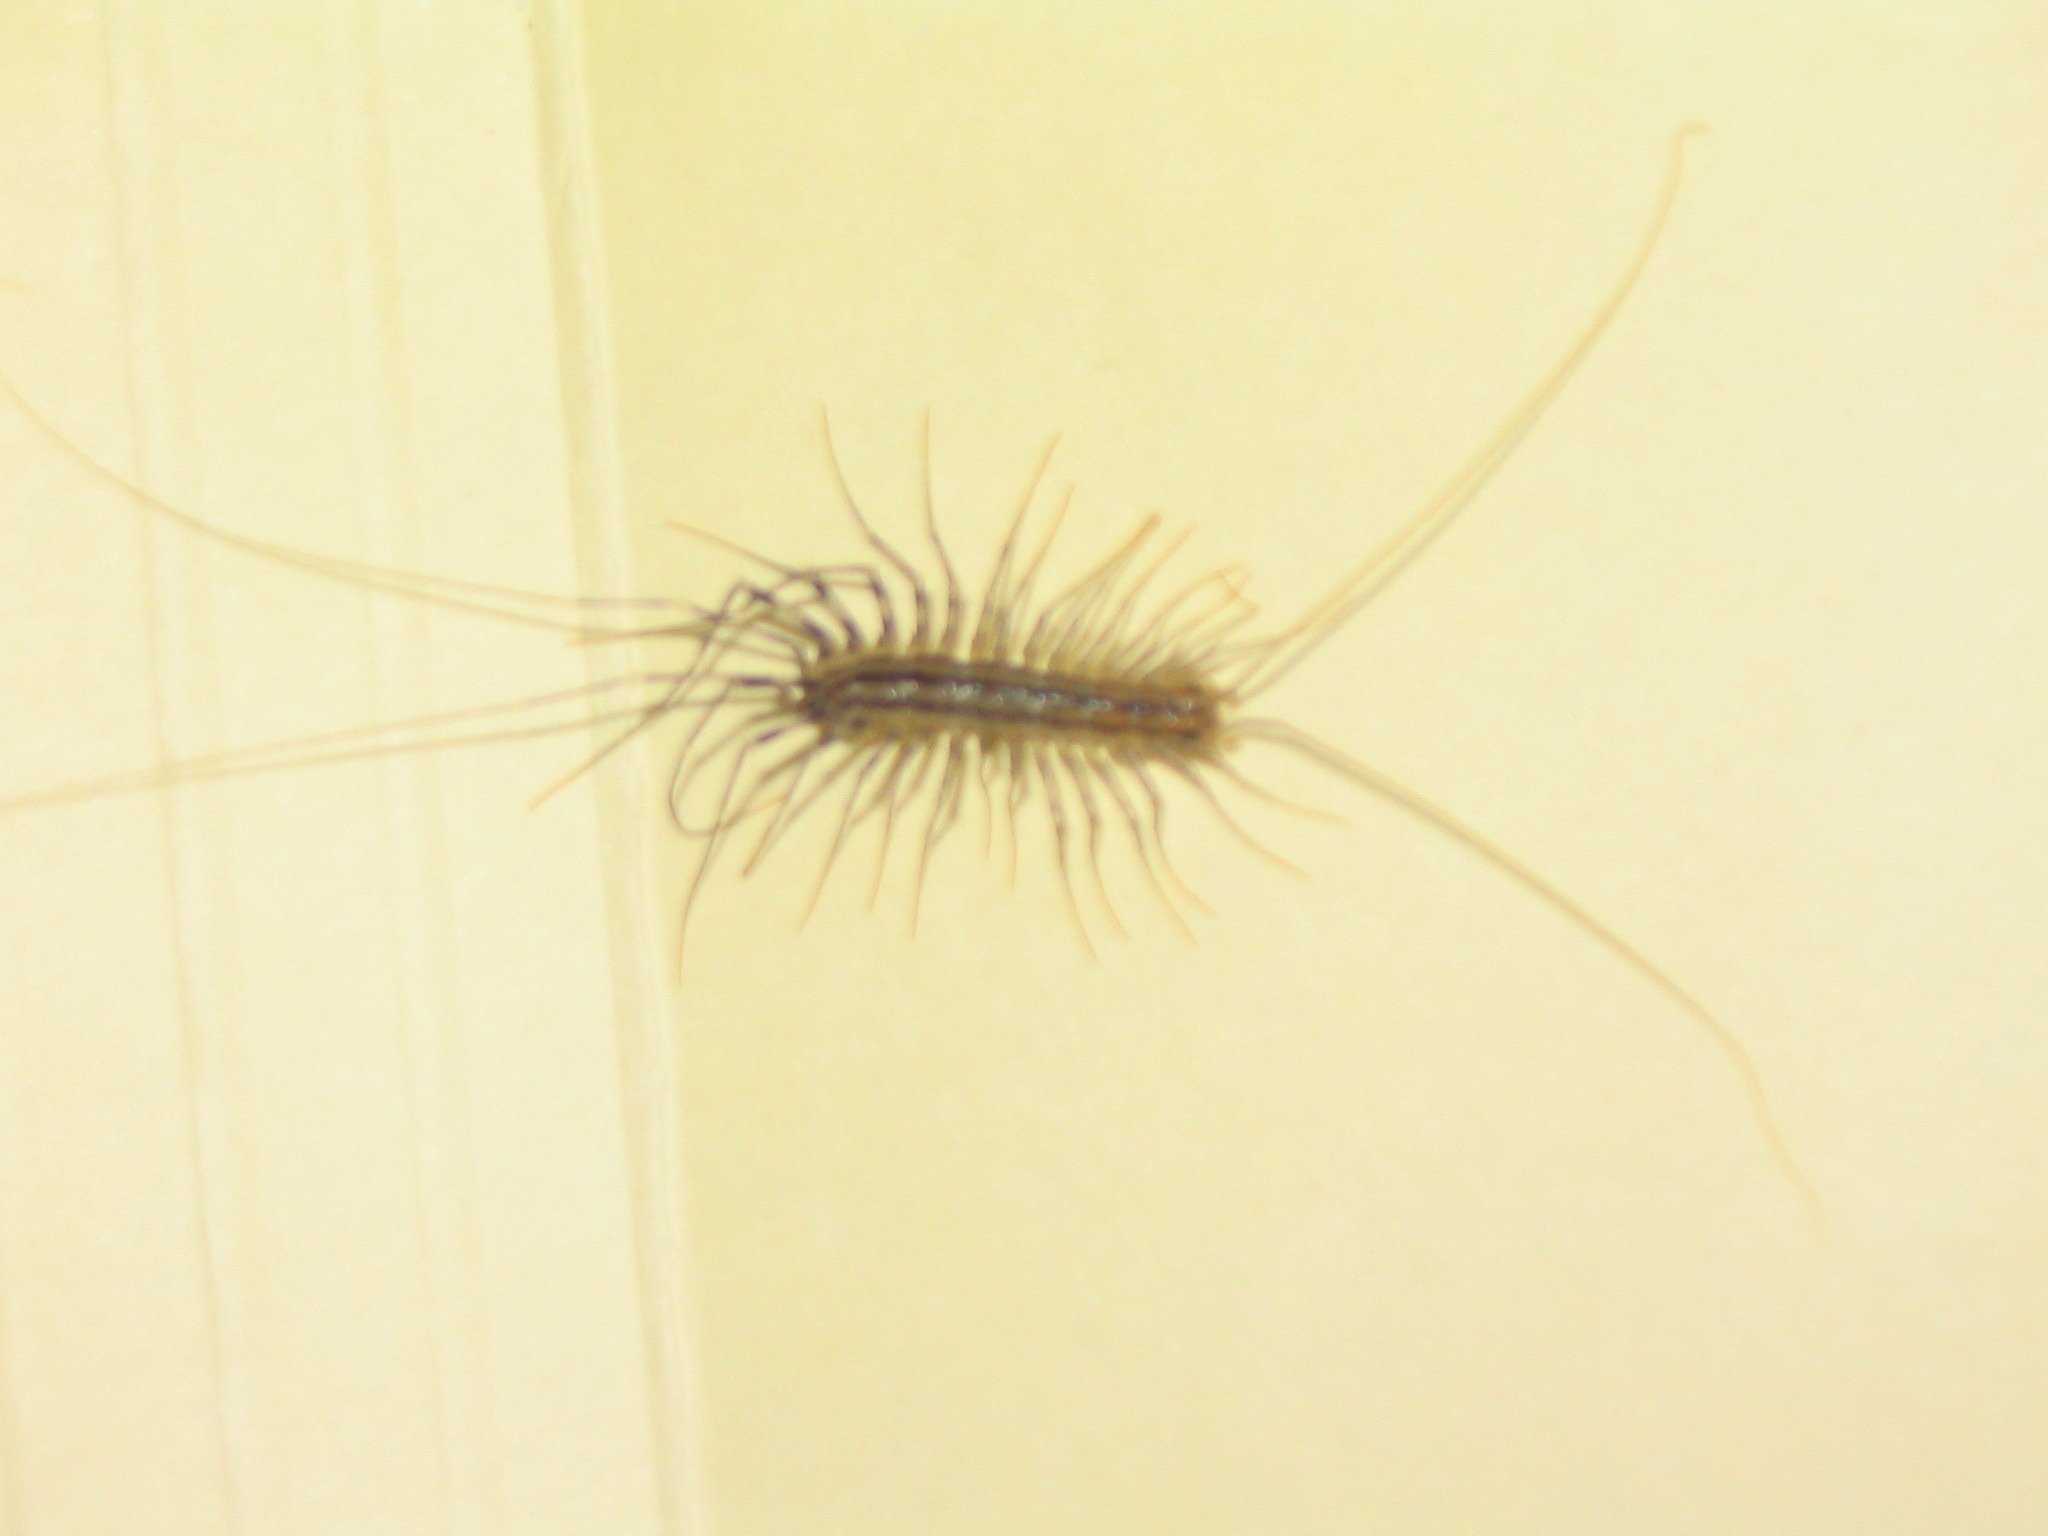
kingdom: Animalia
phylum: Arthropoda
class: Chilopoda
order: Scutigeromorpha
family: Scutigeridae
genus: Scutigera
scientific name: Scutigera coleoptrata
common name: House centipede
